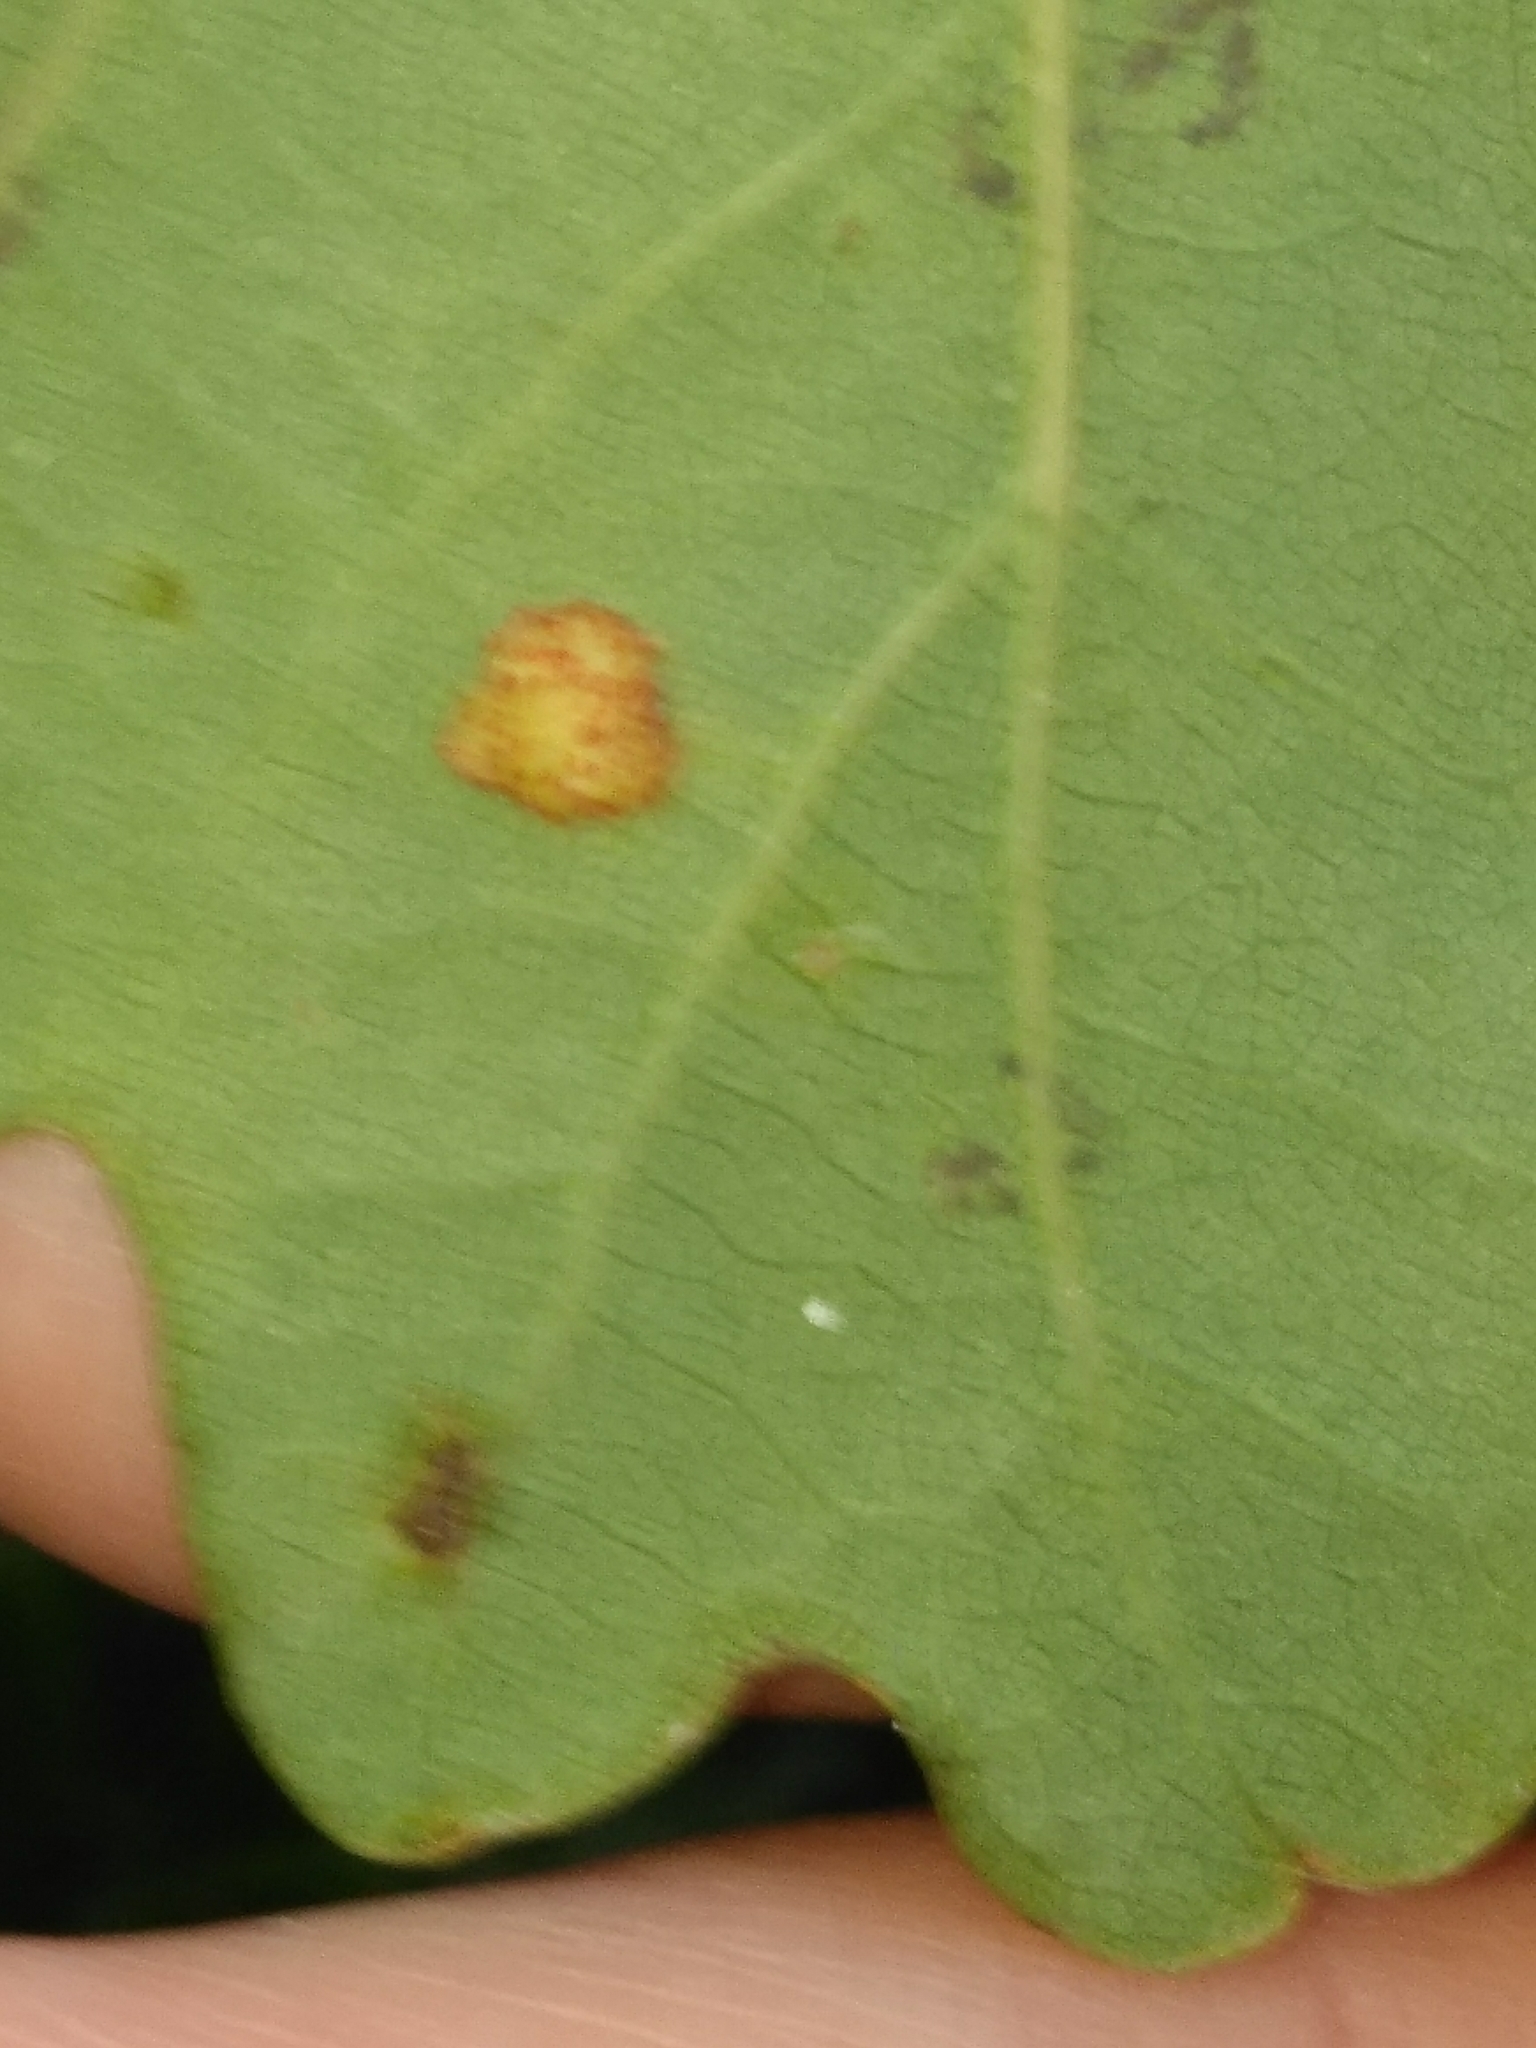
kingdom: Animalia
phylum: Arthropoda
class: Insecta
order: Hymenoptera
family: Cynipidae
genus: Neuroterus
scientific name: Neuroterus quercusbaccarum
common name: Common spangle gall
